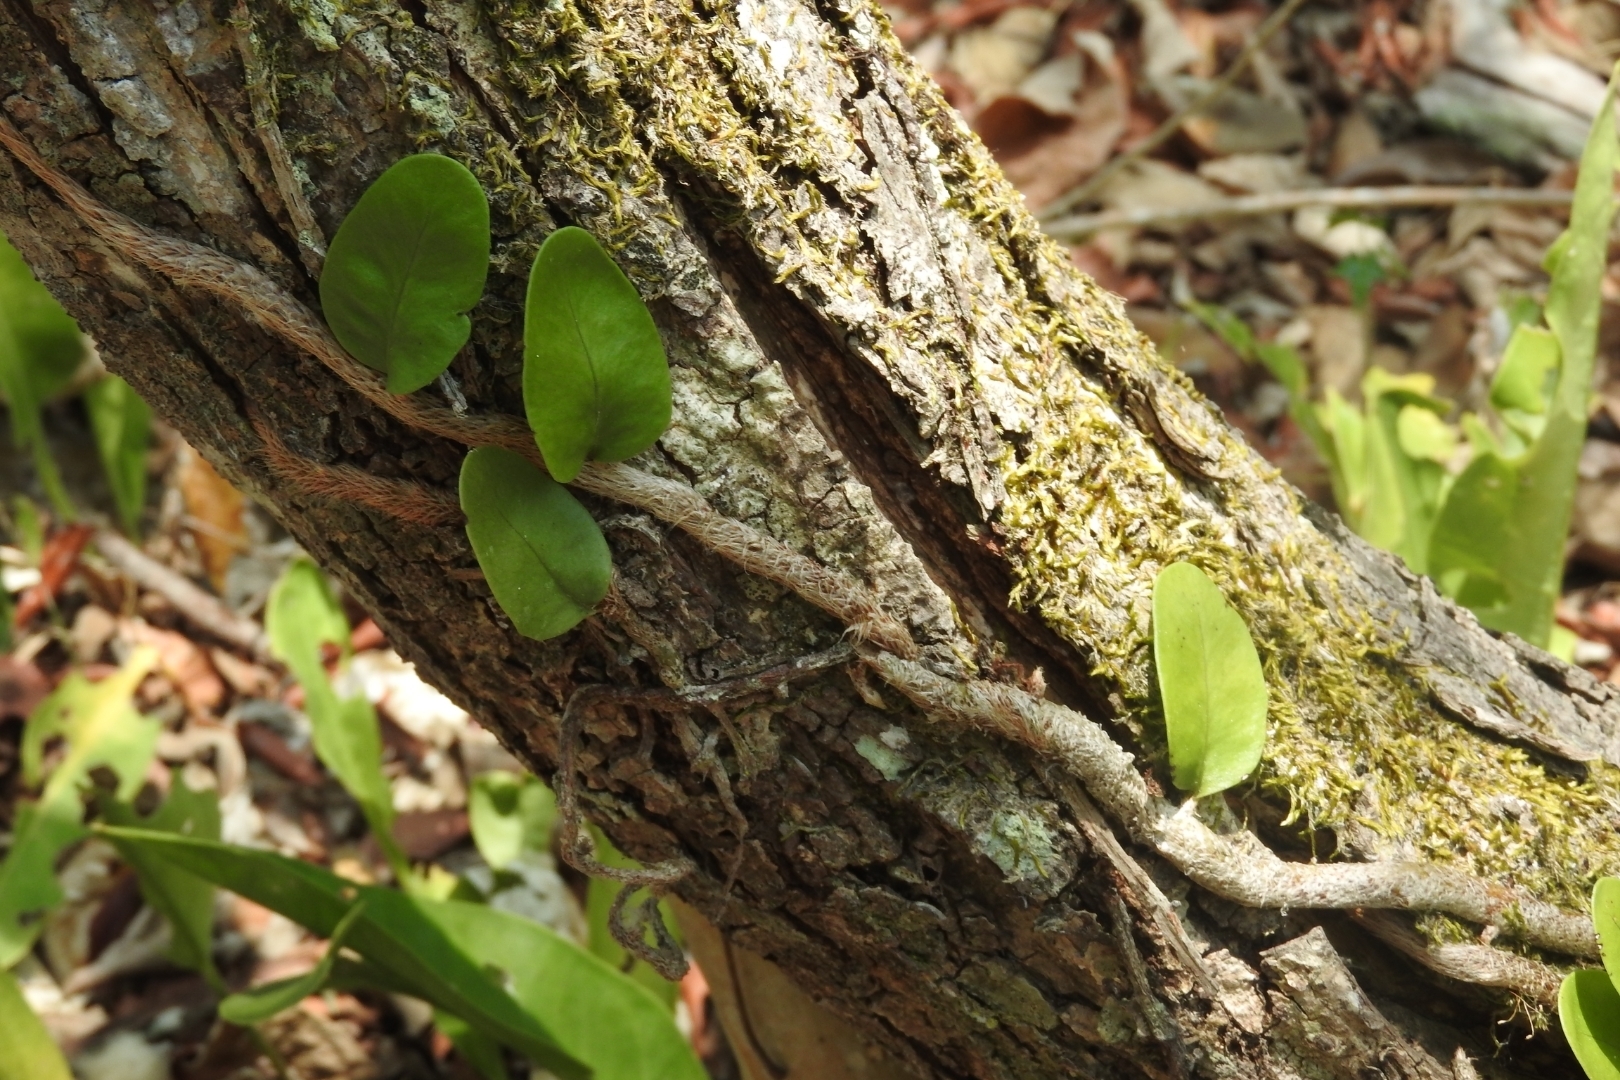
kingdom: Plantae
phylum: Tracheophyta
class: Polypodiopsida
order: Polypodiales
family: Polypodiaceae
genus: Microgramma
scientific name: Microgramma nitida
